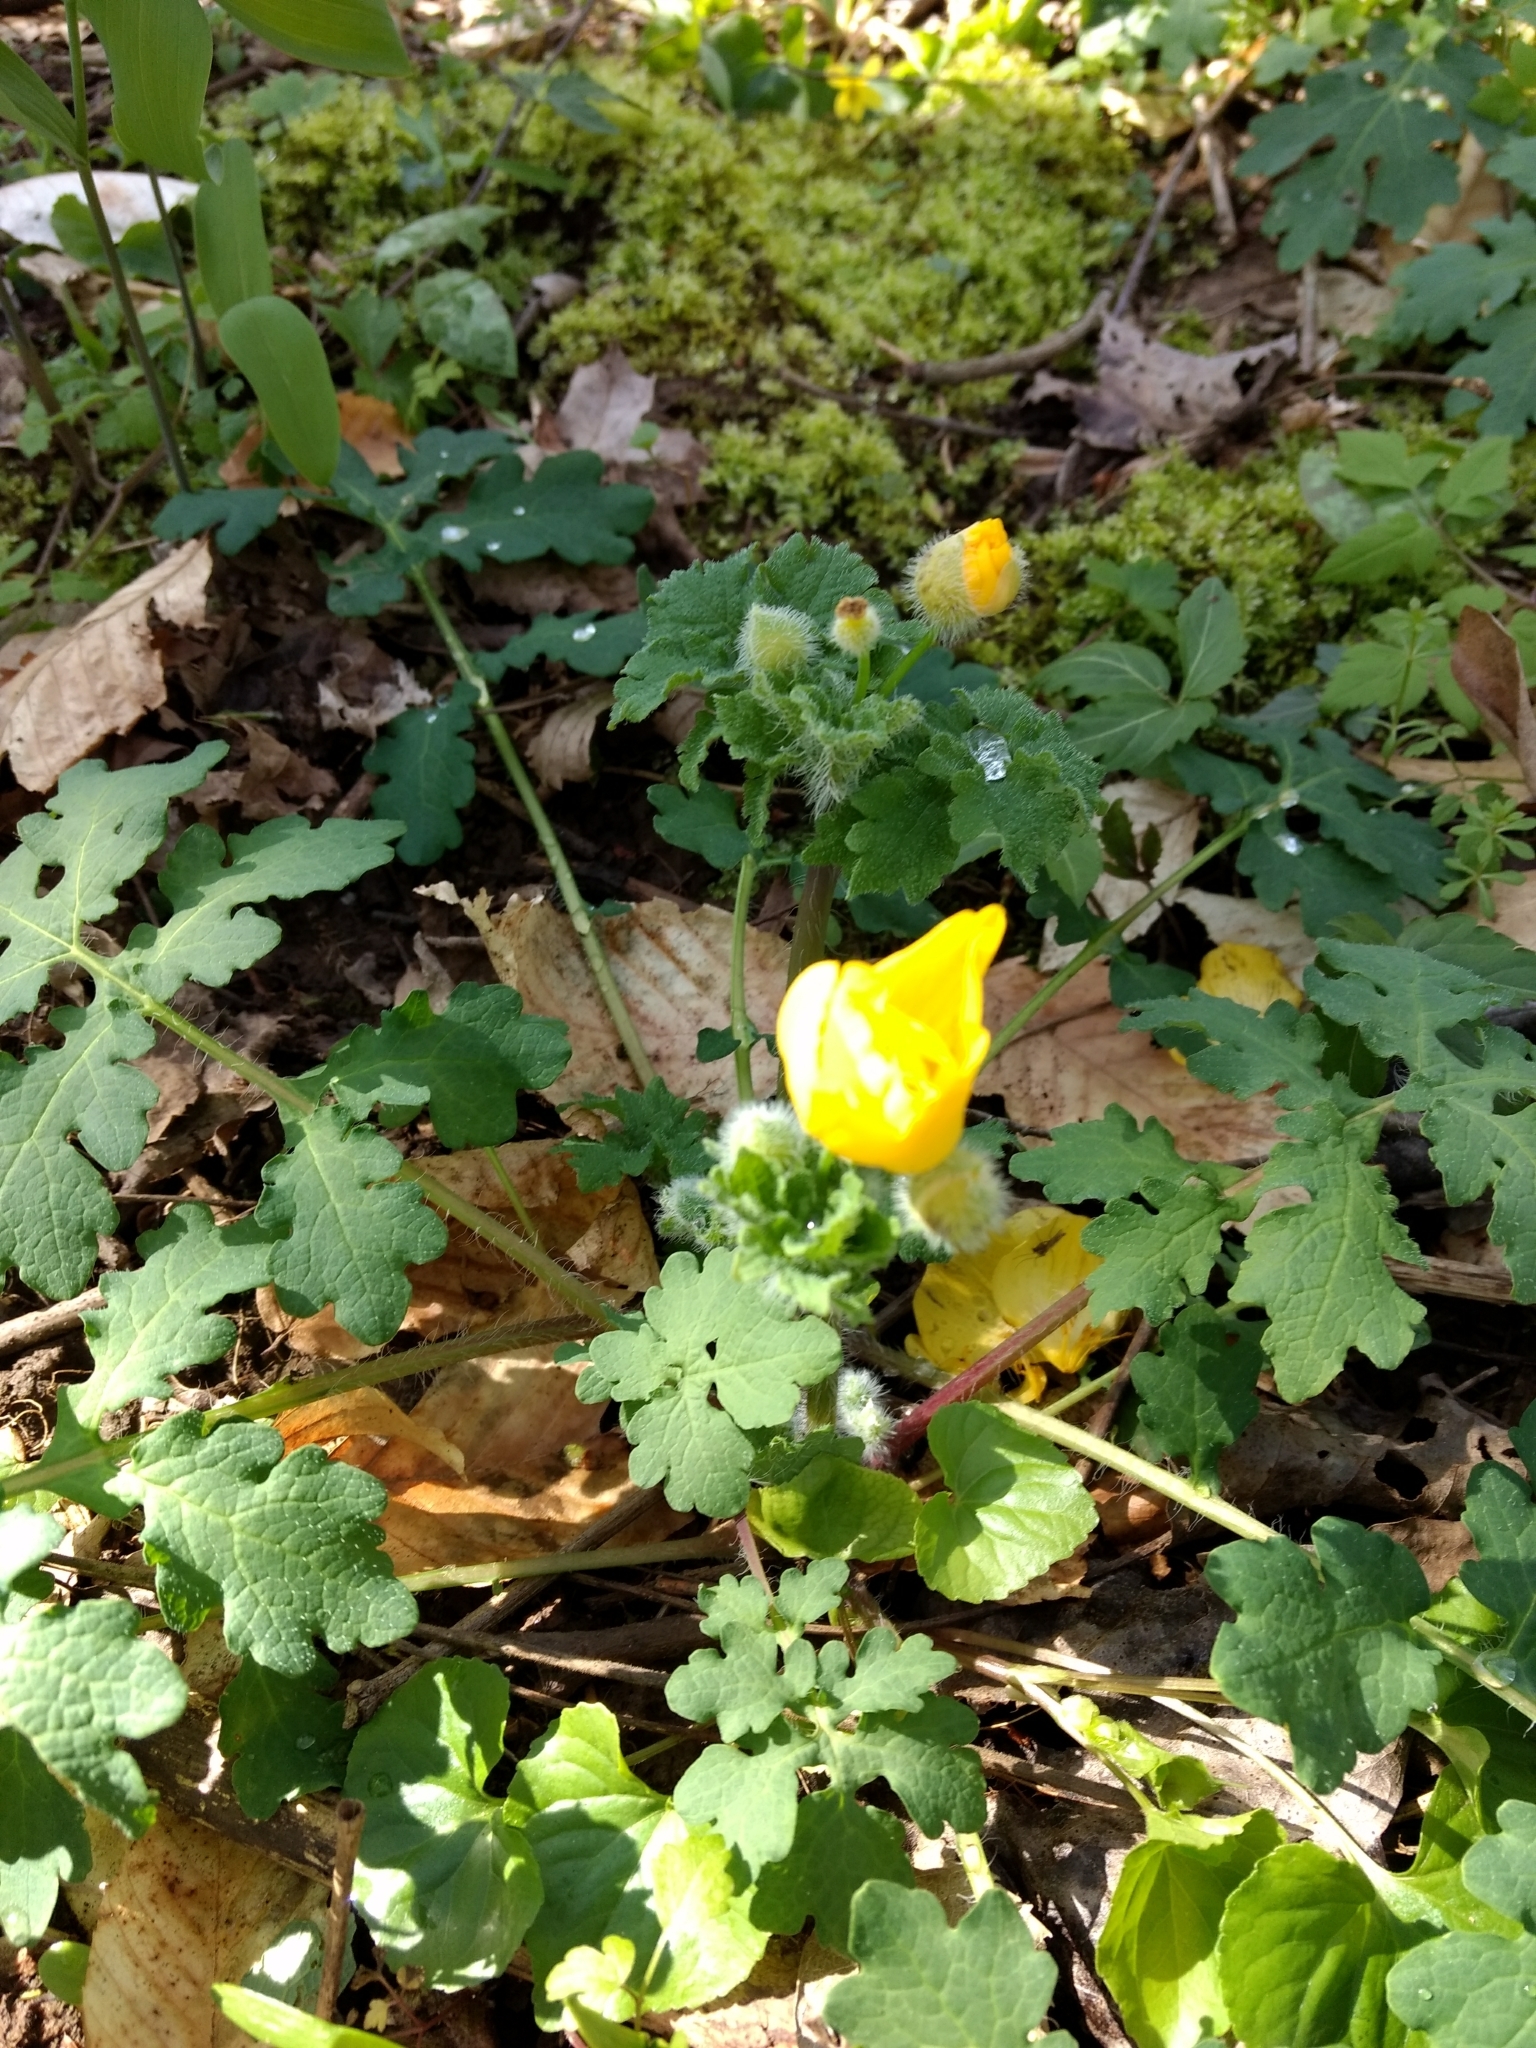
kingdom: Plantae
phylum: Tracheophyta
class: Magnoliopsida
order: Ranunculales
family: Papaveraceae
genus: Stylophorum
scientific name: Stylophorum diphyllum
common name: Celandine poppy
